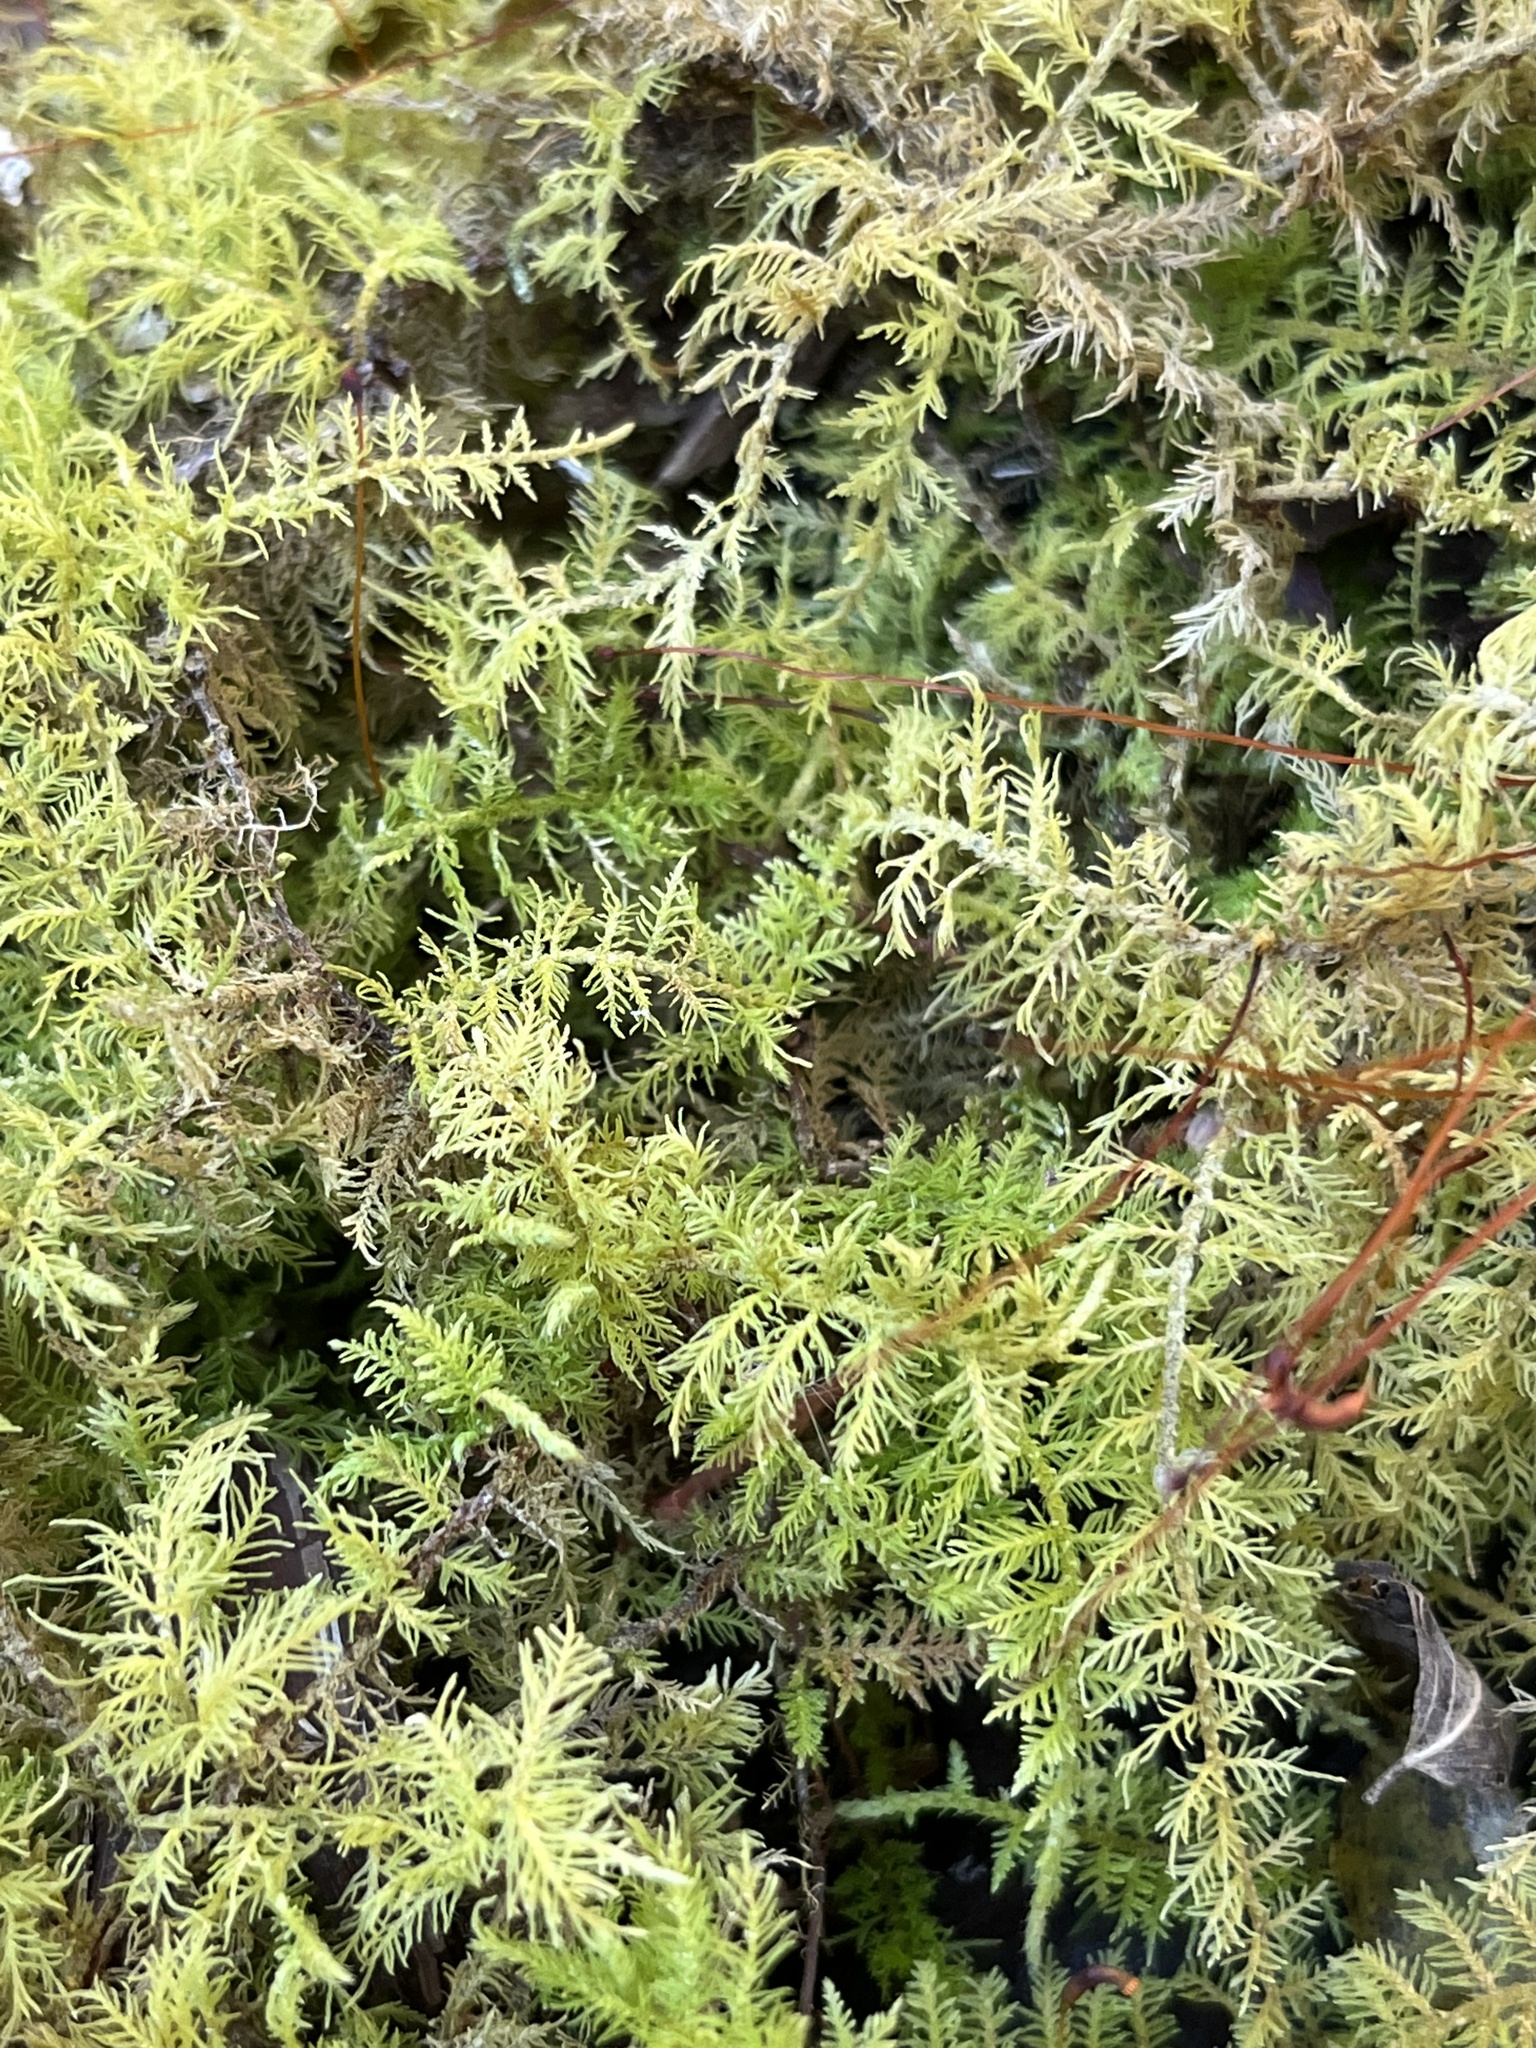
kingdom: Plantae
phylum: Bryophyta
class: Bryopsida
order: Hypnales
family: Thuidiaceae
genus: Thuidium
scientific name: Thuidium delicatulum
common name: Delicate fern moss
